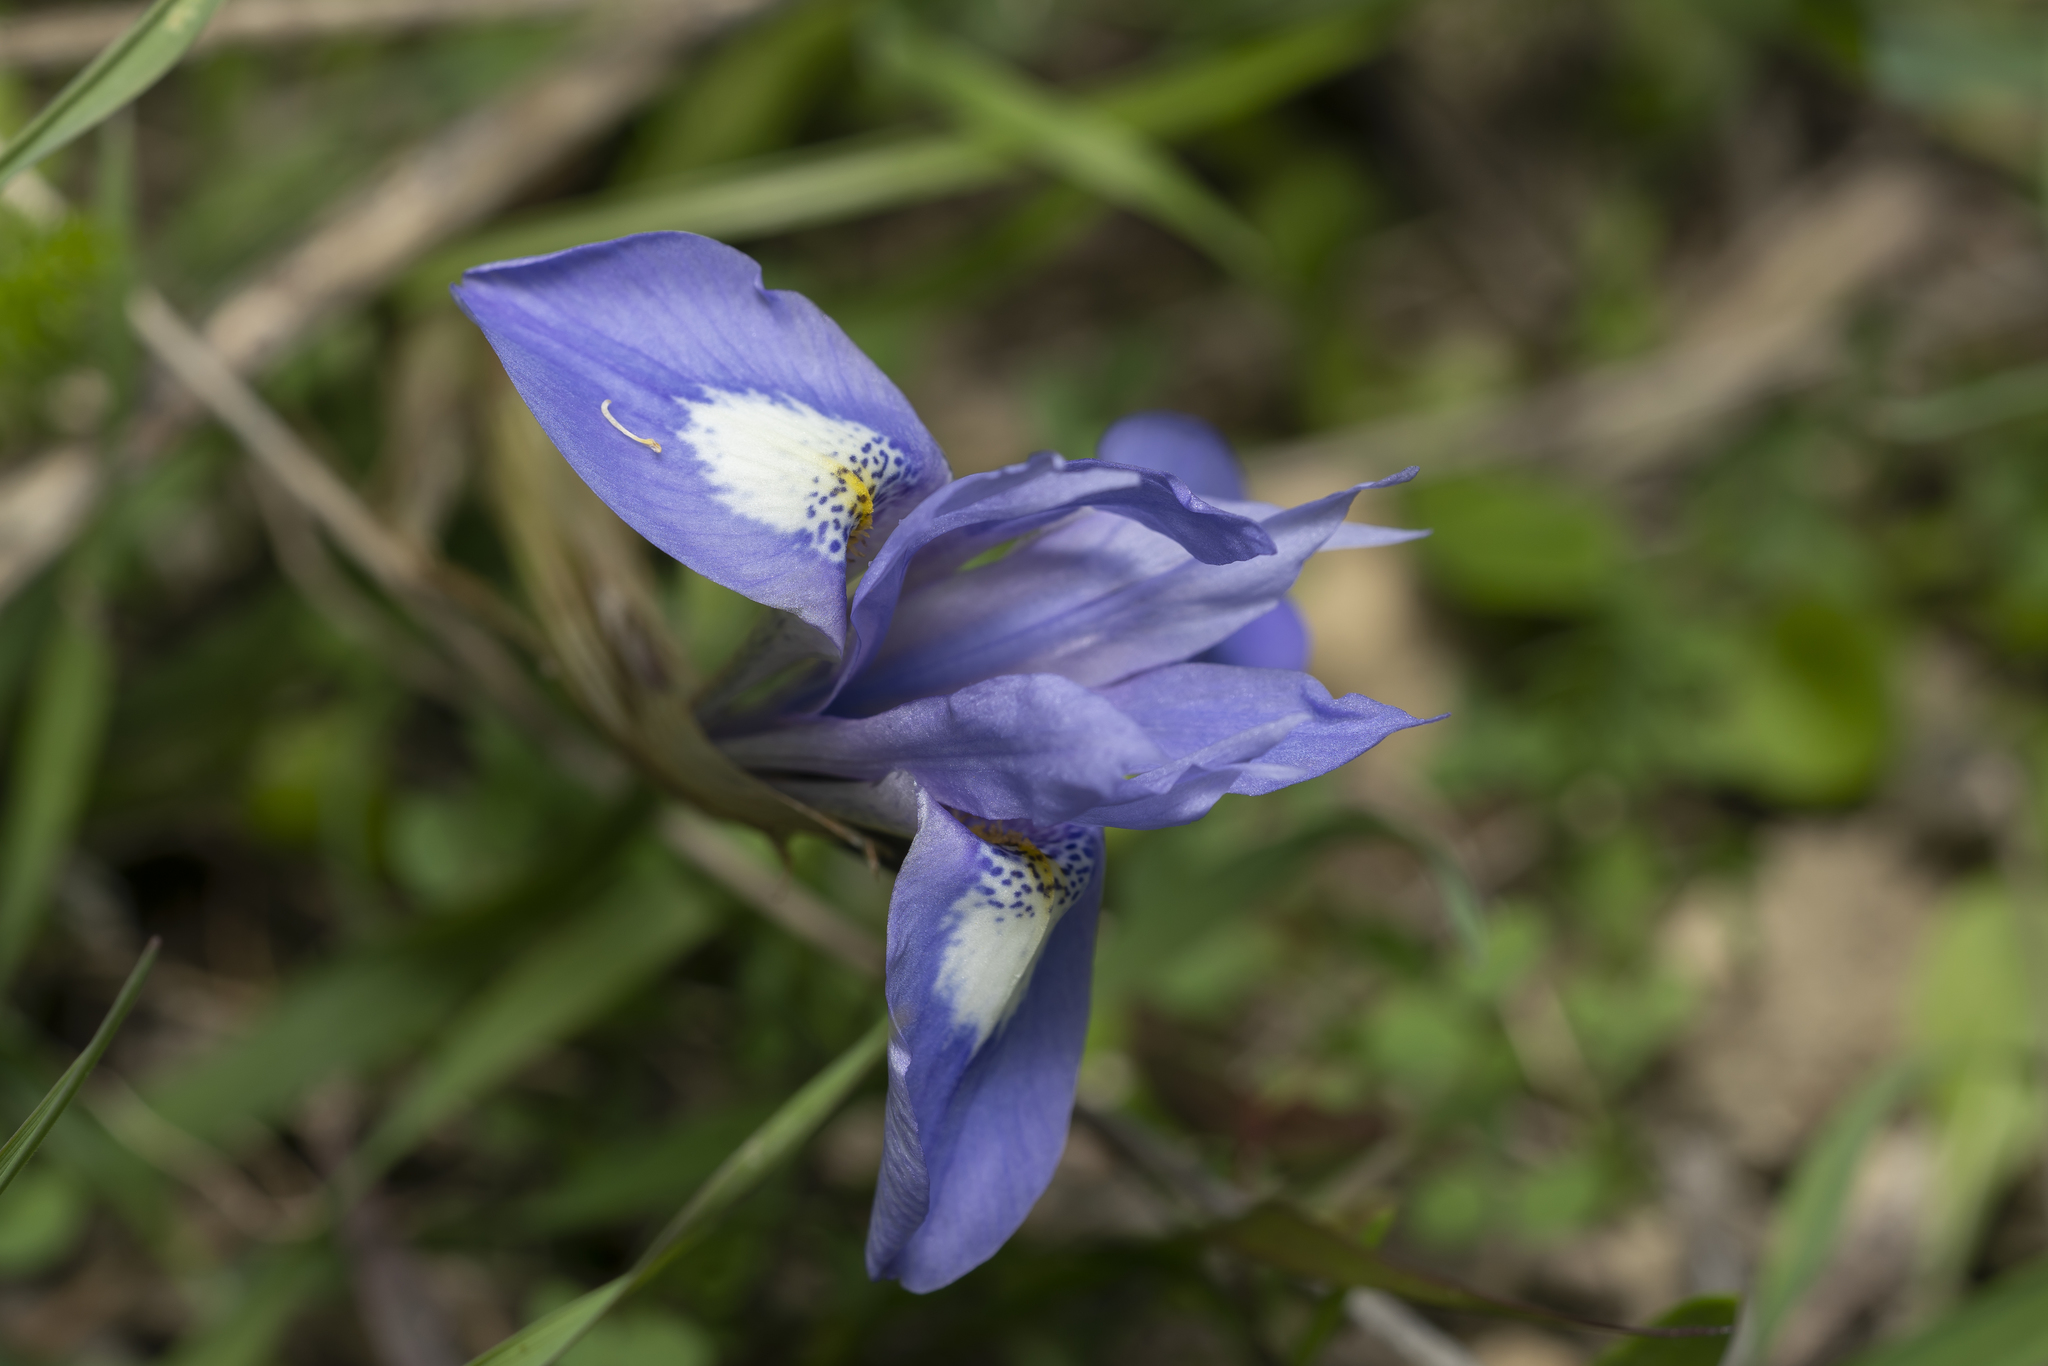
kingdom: Plantae
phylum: Tracheophyta
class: Liliopsida
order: Asparagales
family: Iridaceae
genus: Moraea
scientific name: Moraea sisyrinchium
